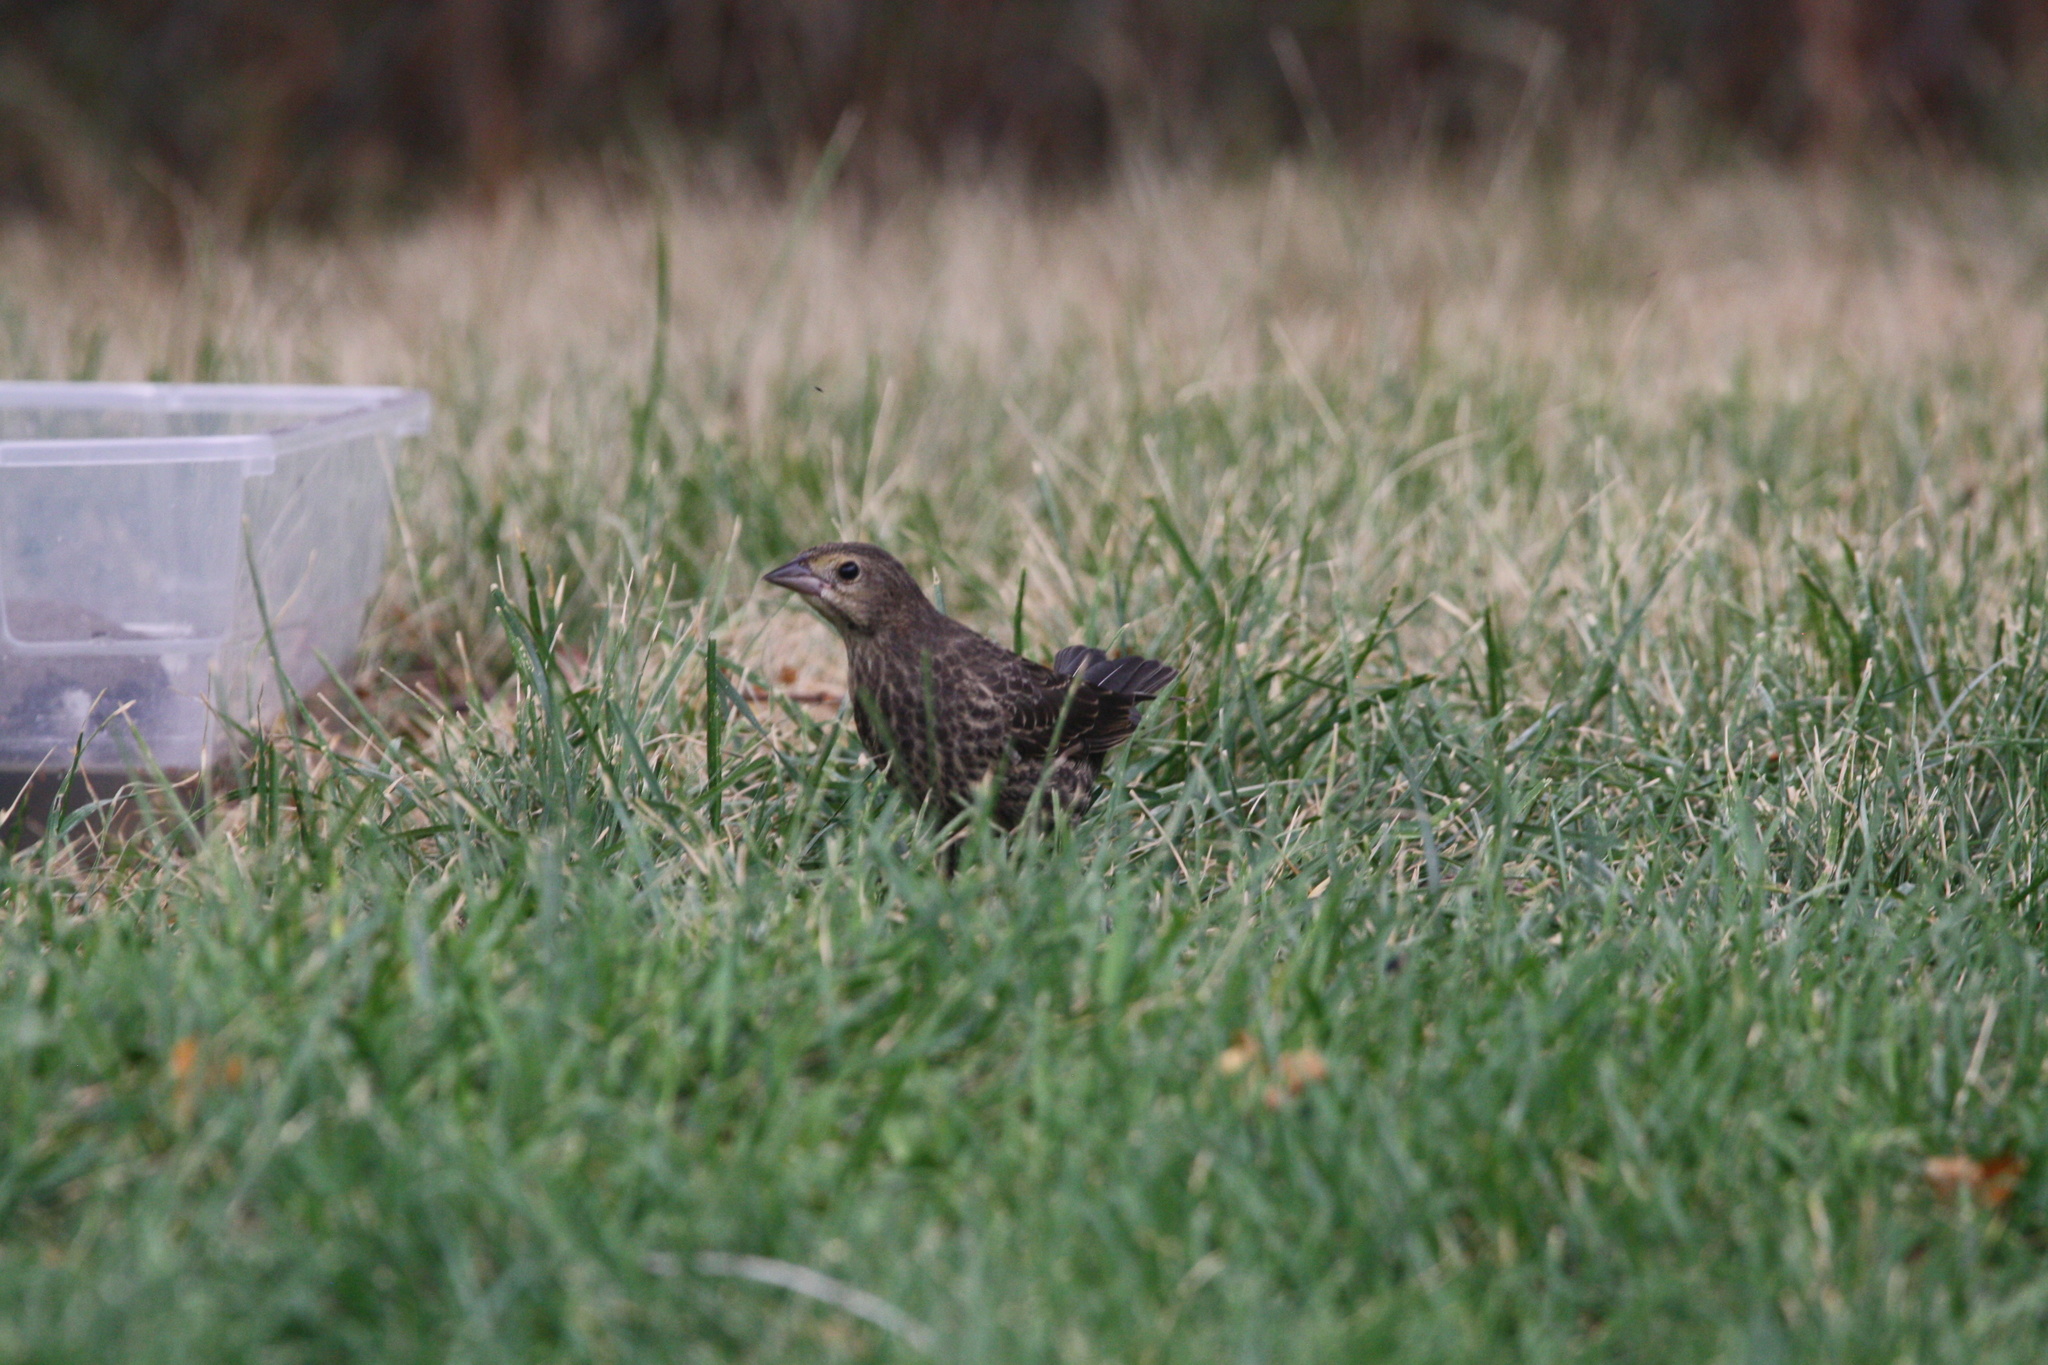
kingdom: Animalia
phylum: Chordata
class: Aves
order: Passeriformes
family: Icteridae
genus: Molothrus
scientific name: Molothrus ater
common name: Brown-headed cowbird
